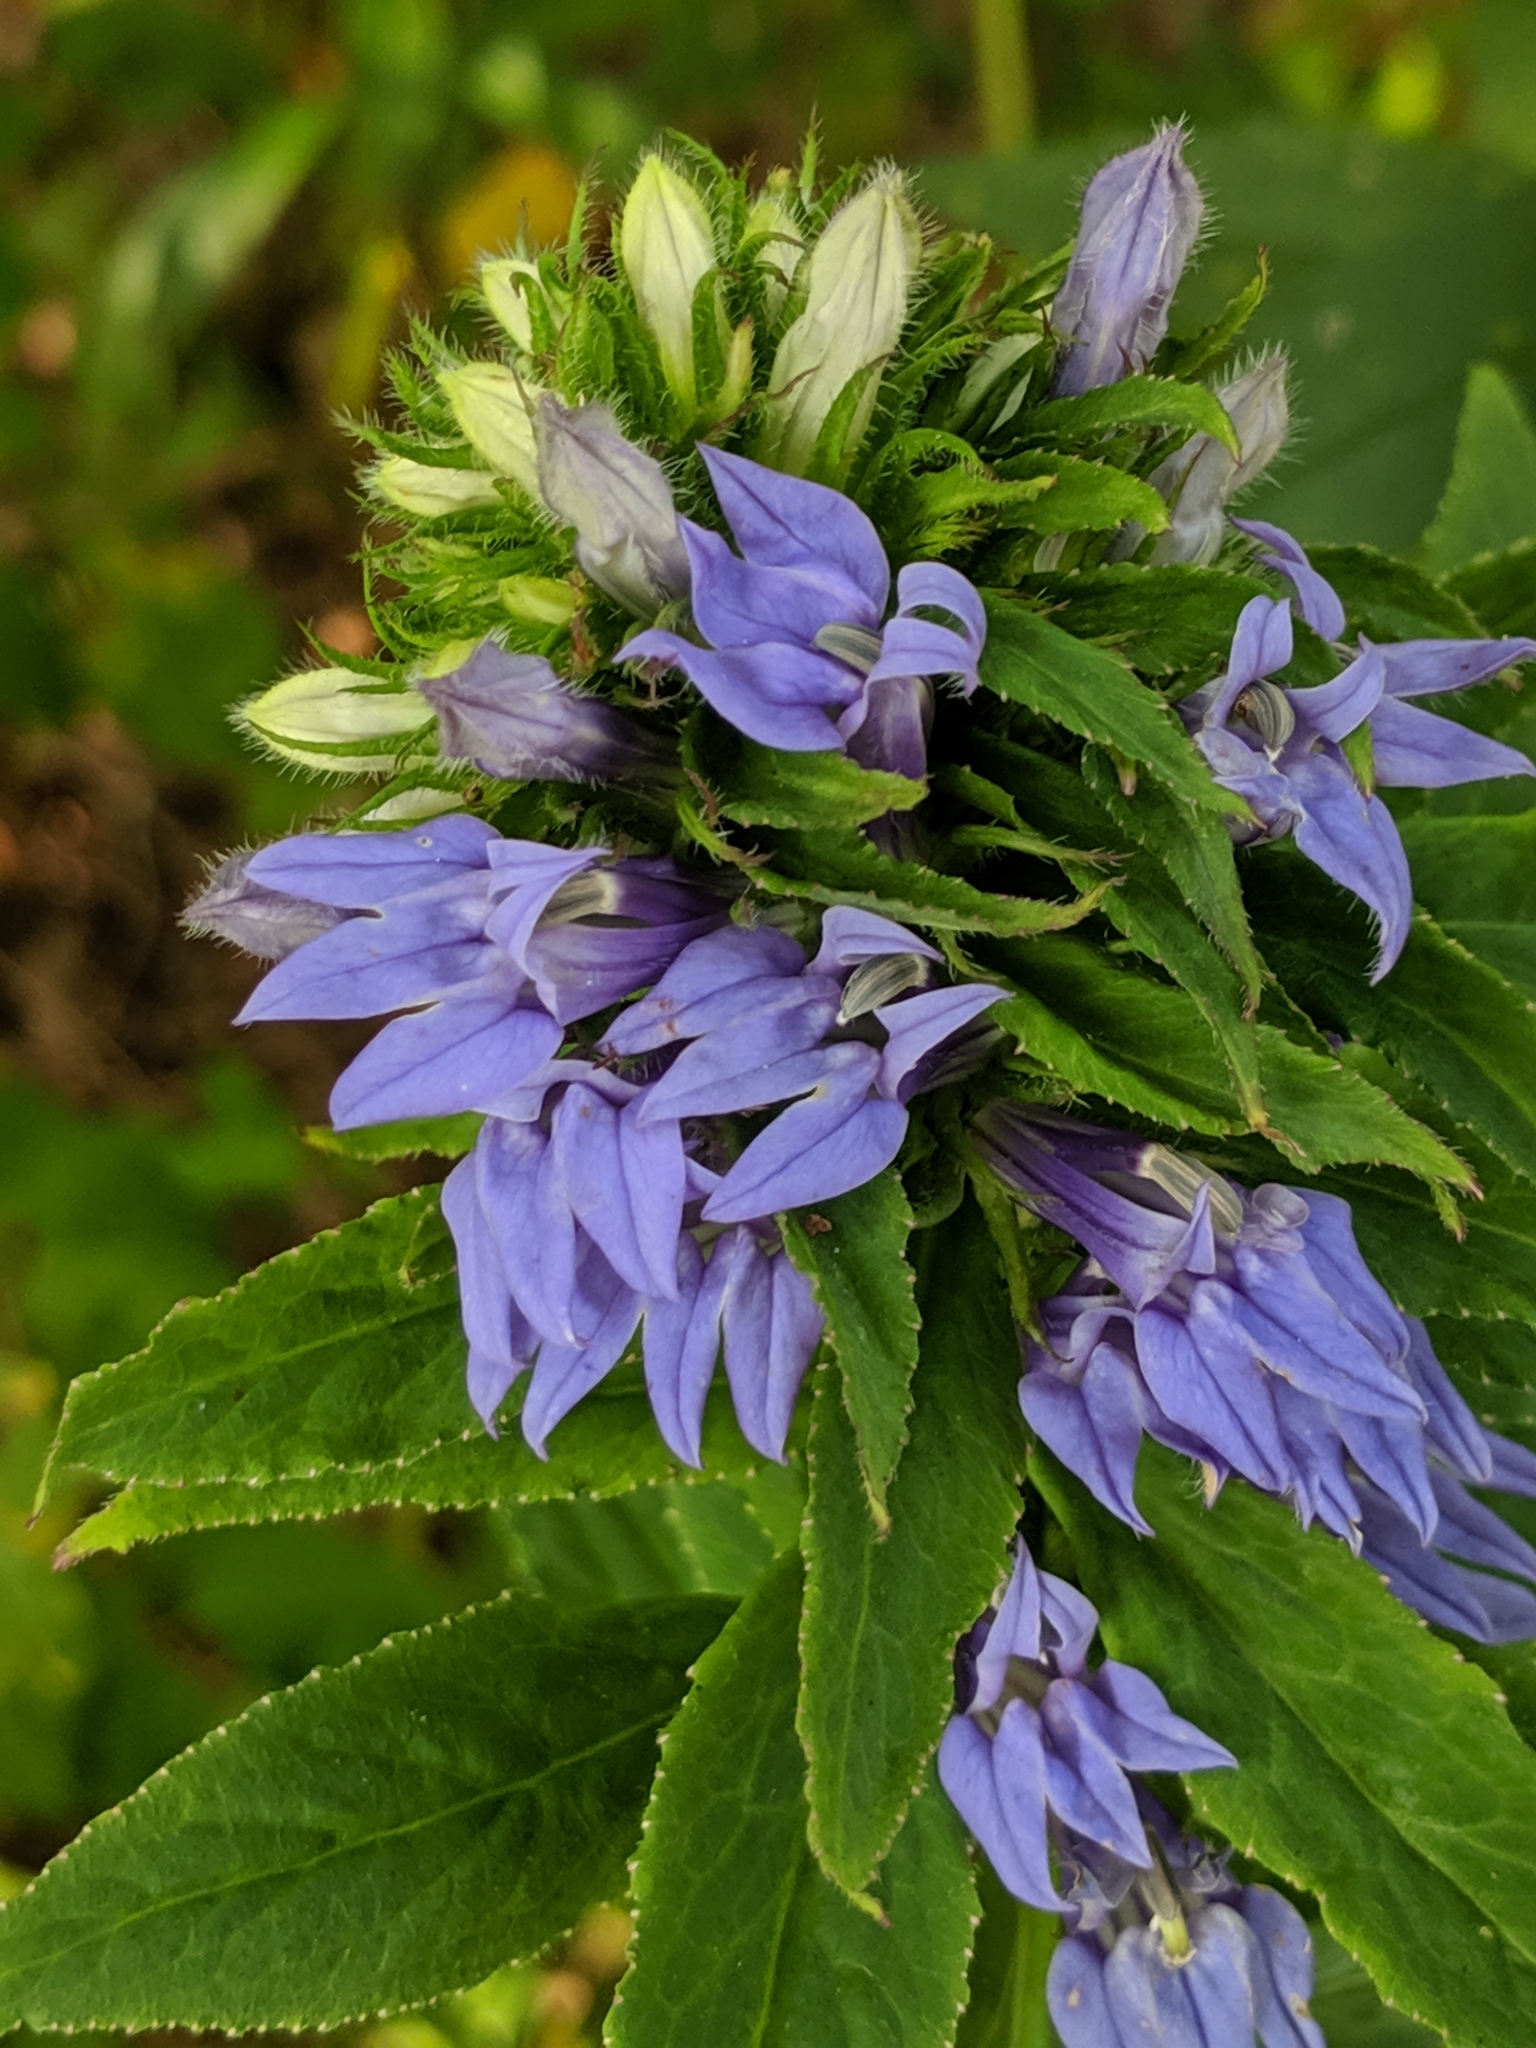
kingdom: Plantae
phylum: Tracheophyta
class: Magnoliopsida
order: Asterales
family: Campanulaceae
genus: Lobelia
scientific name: Lobelia siphilitica
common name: Great lobelia
